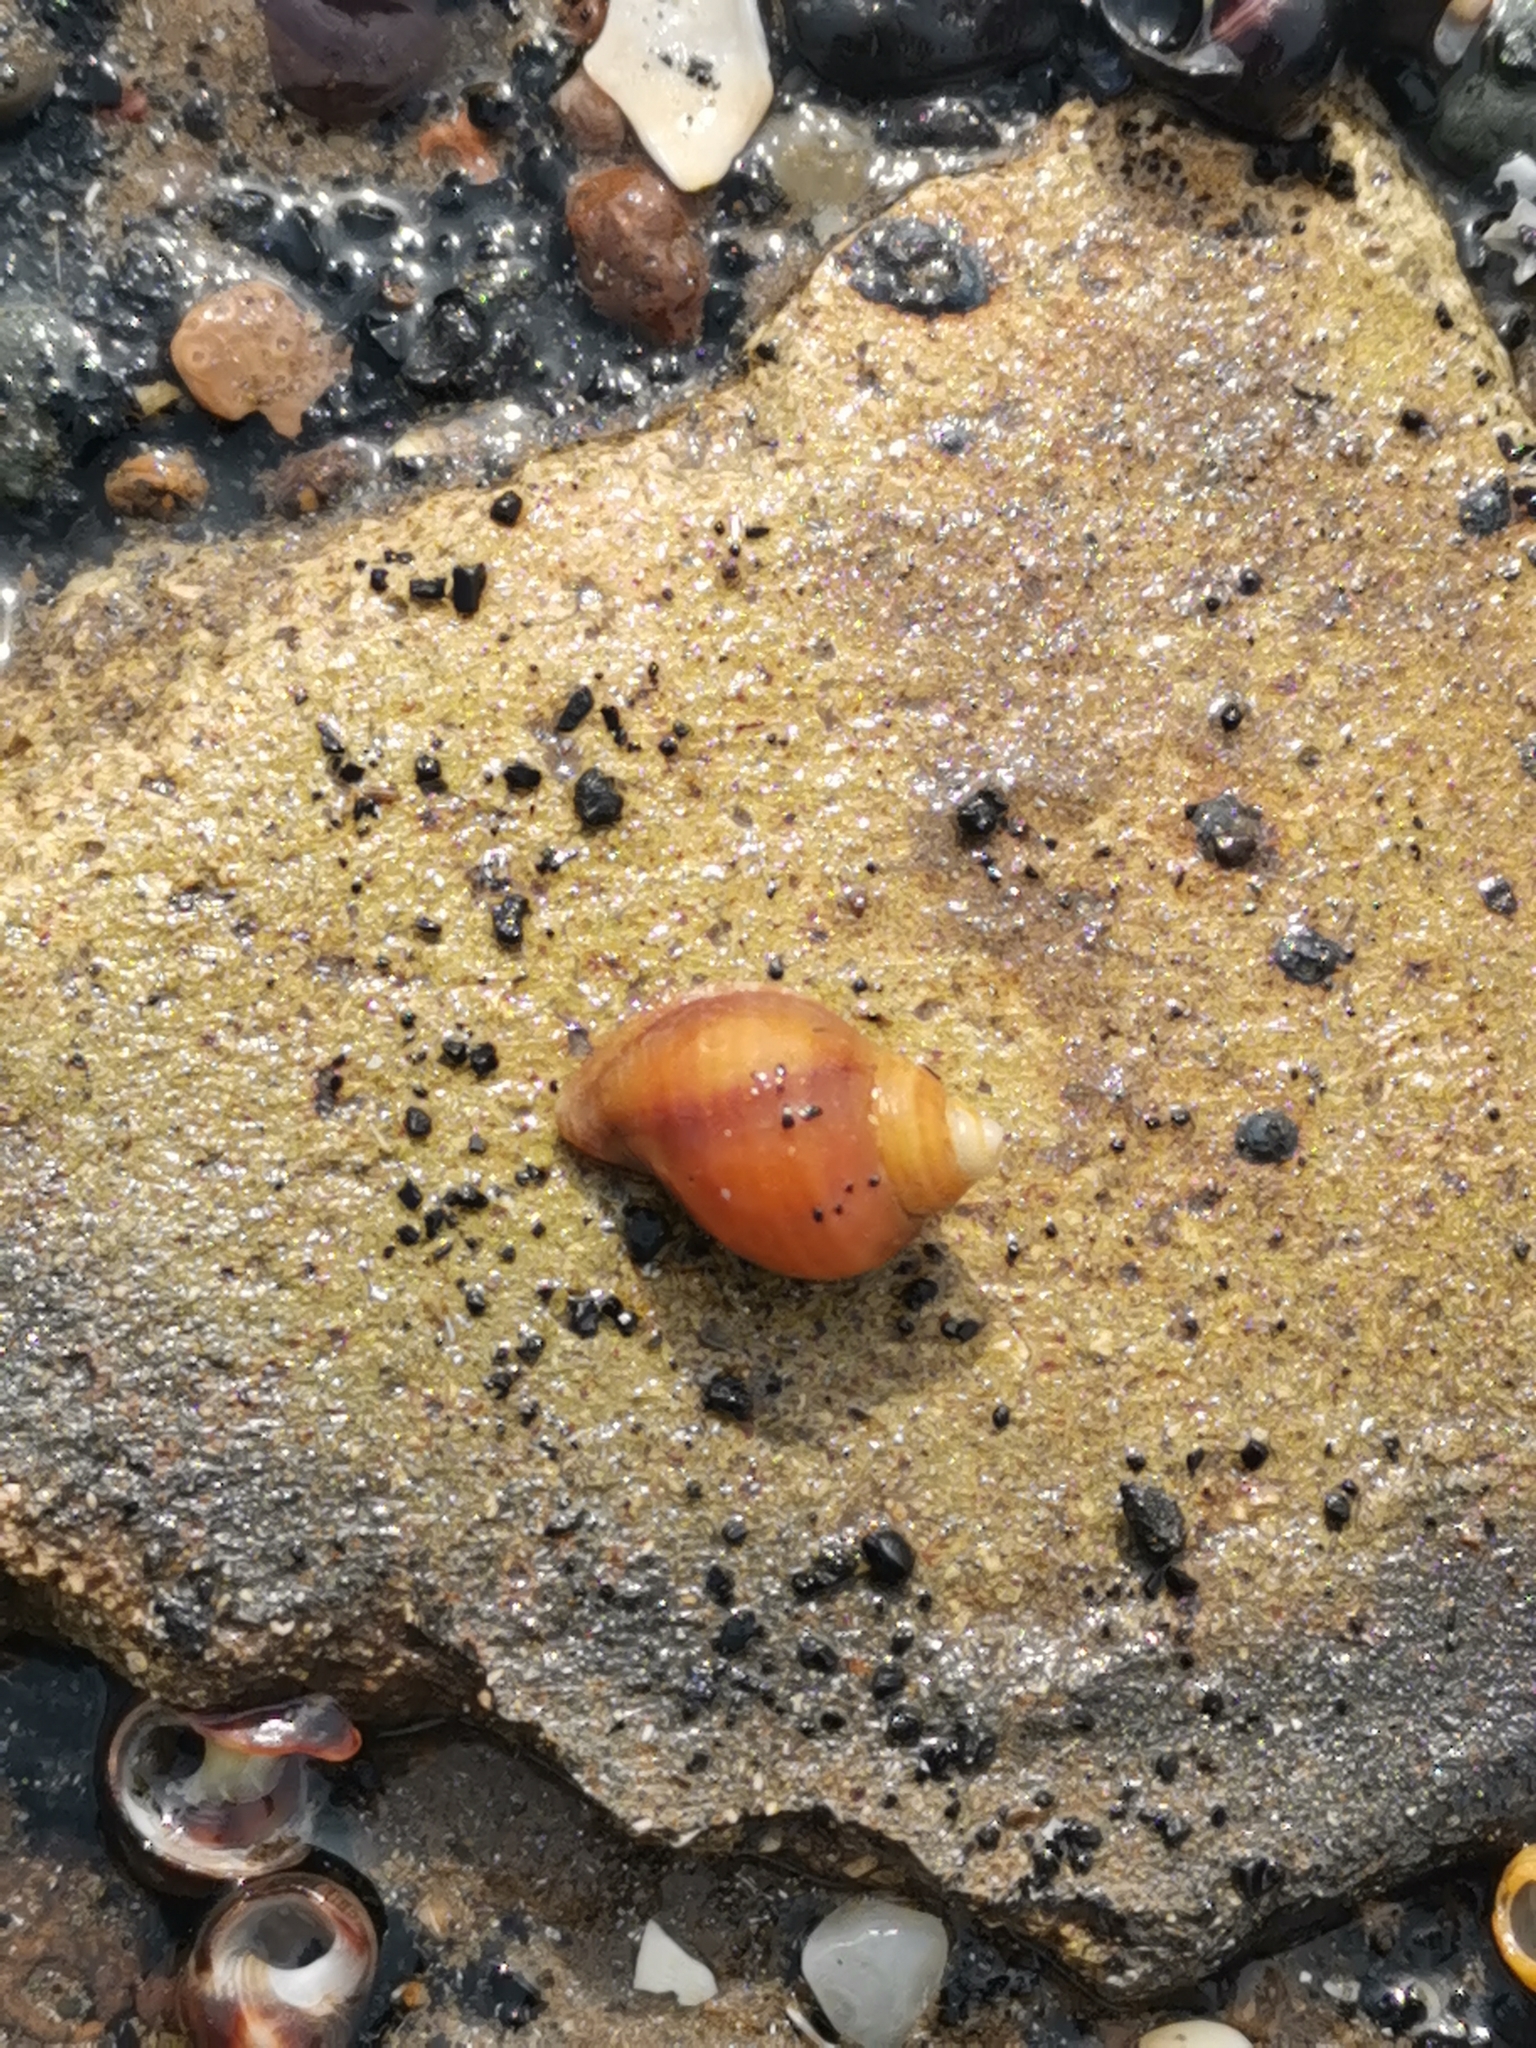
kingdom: Animalia
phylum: Mollusca
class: Gastropoda
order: Neogastropoda
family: Muricidae
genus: Nucella
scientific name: Nucella lapillus
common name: Dog whelk
